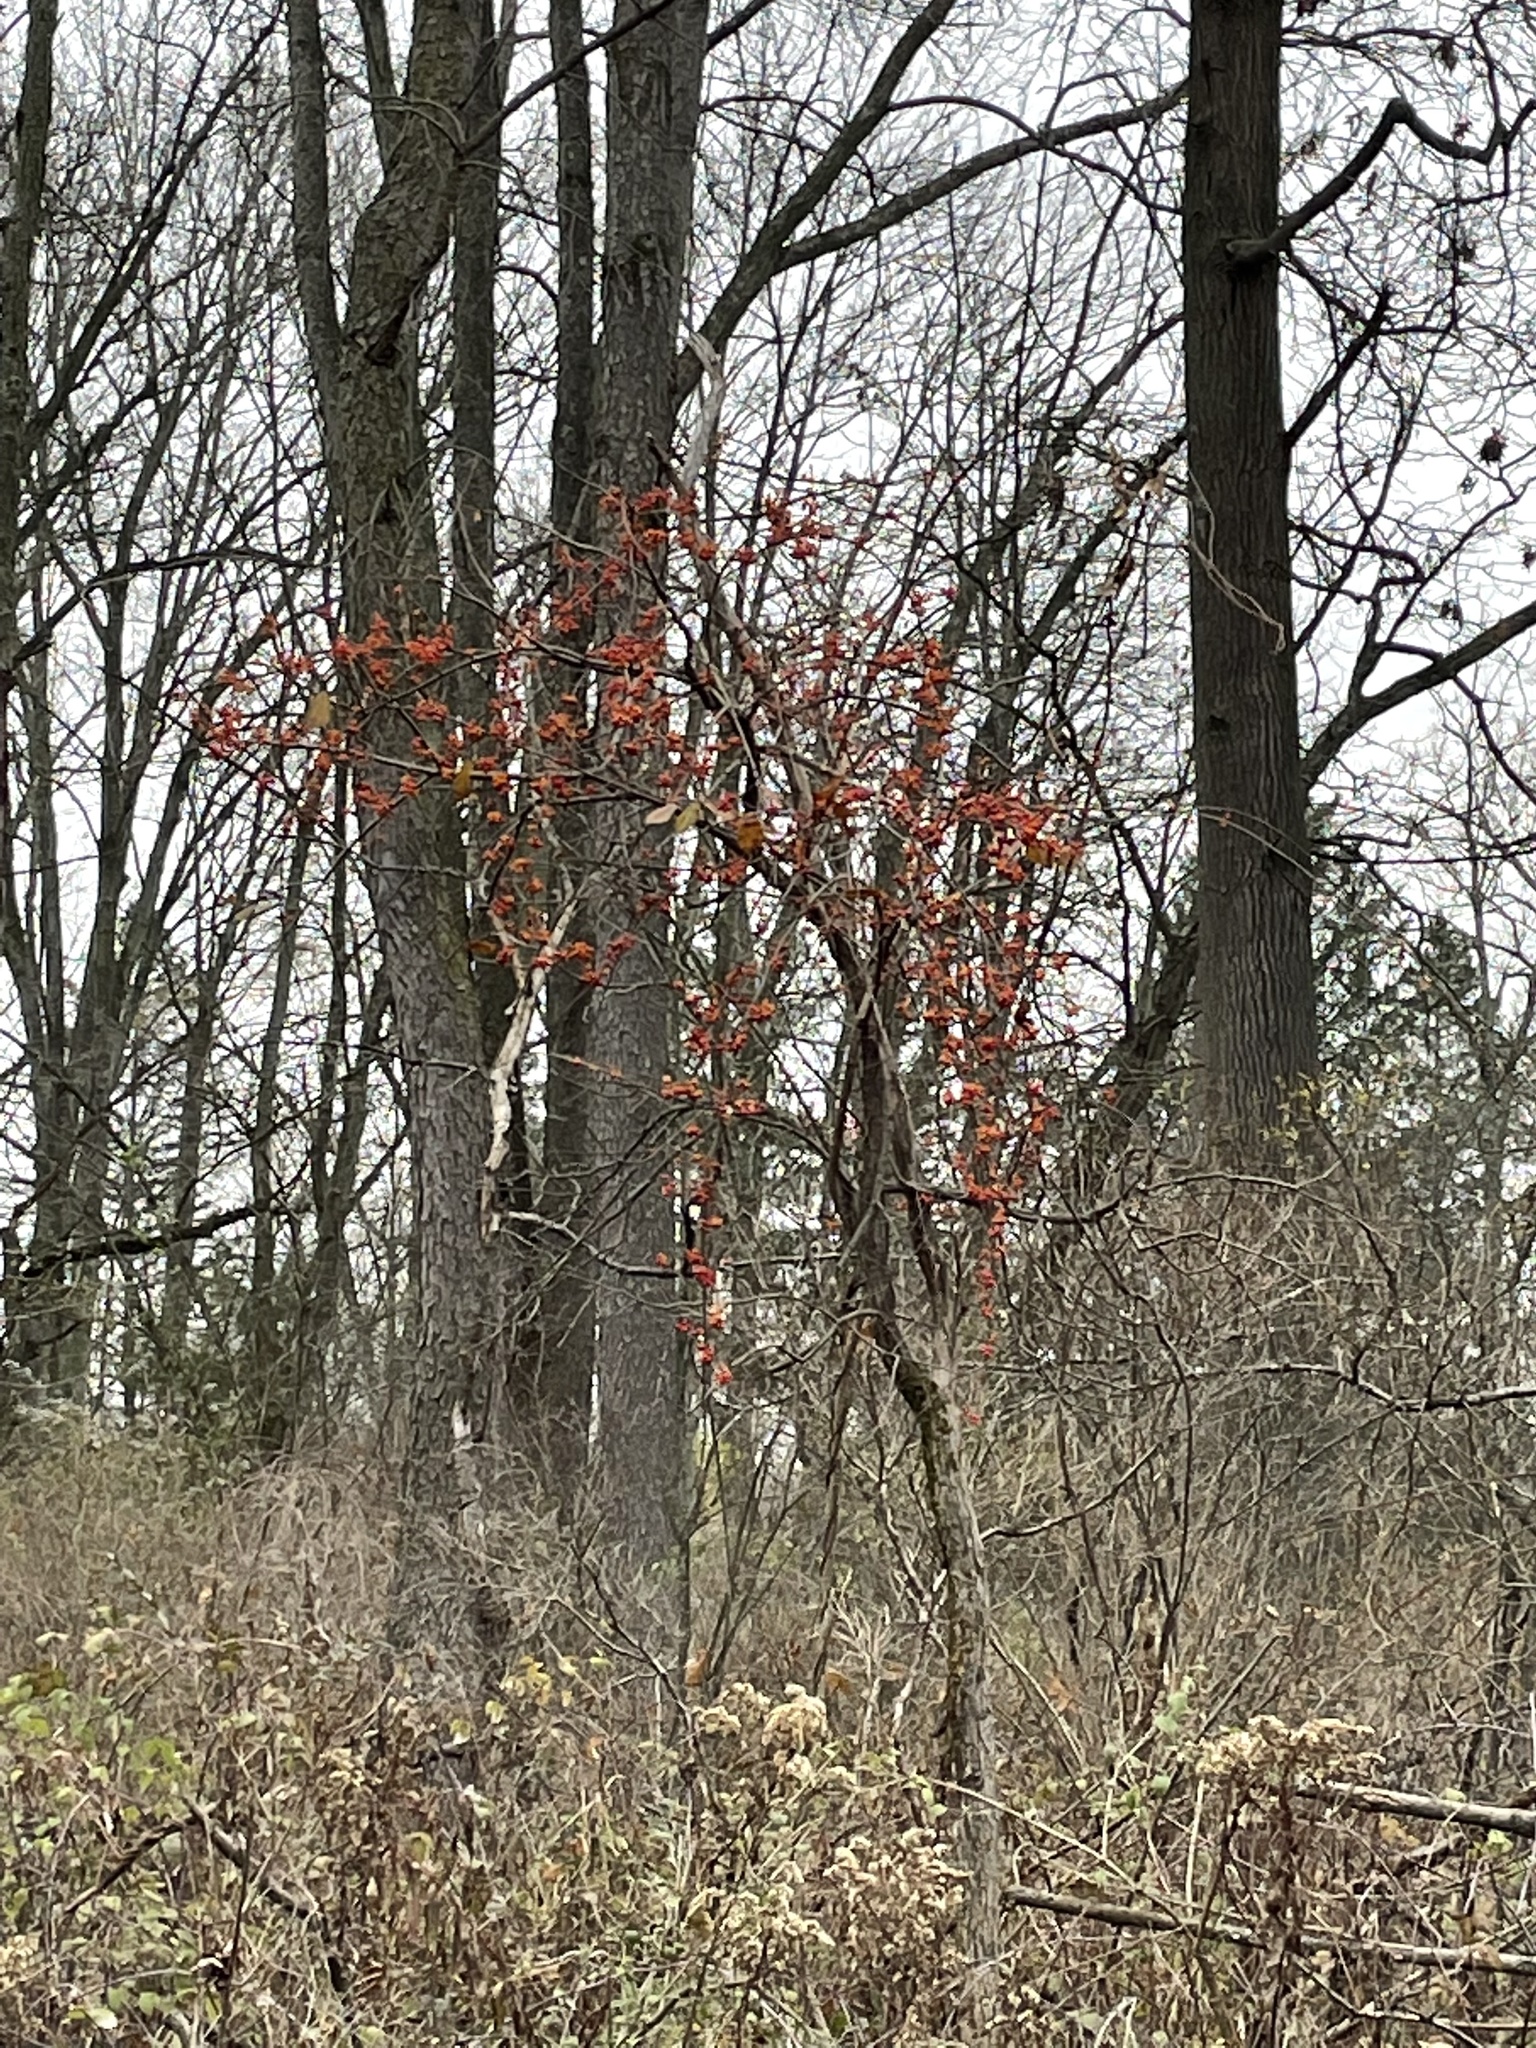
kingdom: Plantae
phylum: Tracheophyta
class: Magnoliopsida
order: Celastrales
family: Celastraceae
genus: Celastrus
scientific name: Celastrus orbiculatus
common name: Oriental bittersweet
